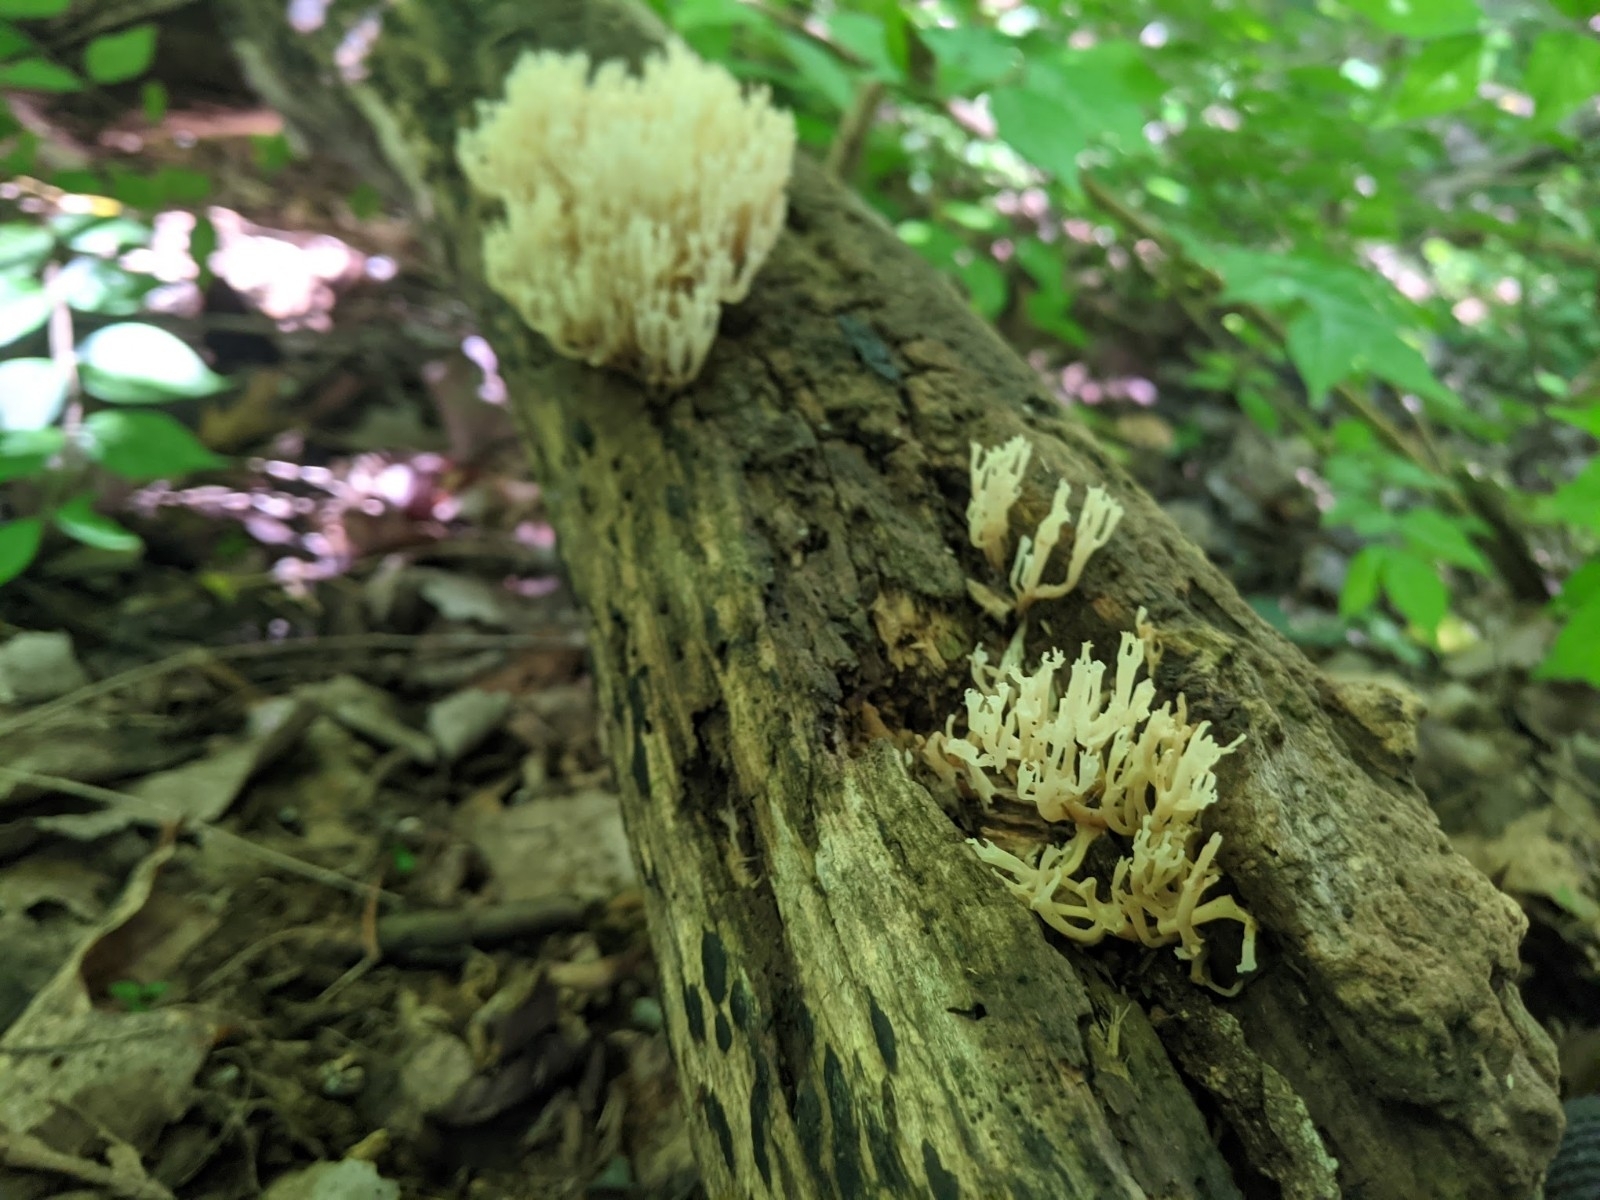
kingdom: Fungi
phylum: Basidiomycota
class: Agaricomycetes
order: Russulales
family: Auriscalpiaceae
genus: Artomyces
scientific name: Artomyces pyxidatus
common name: Crown-tipped coral fungus
